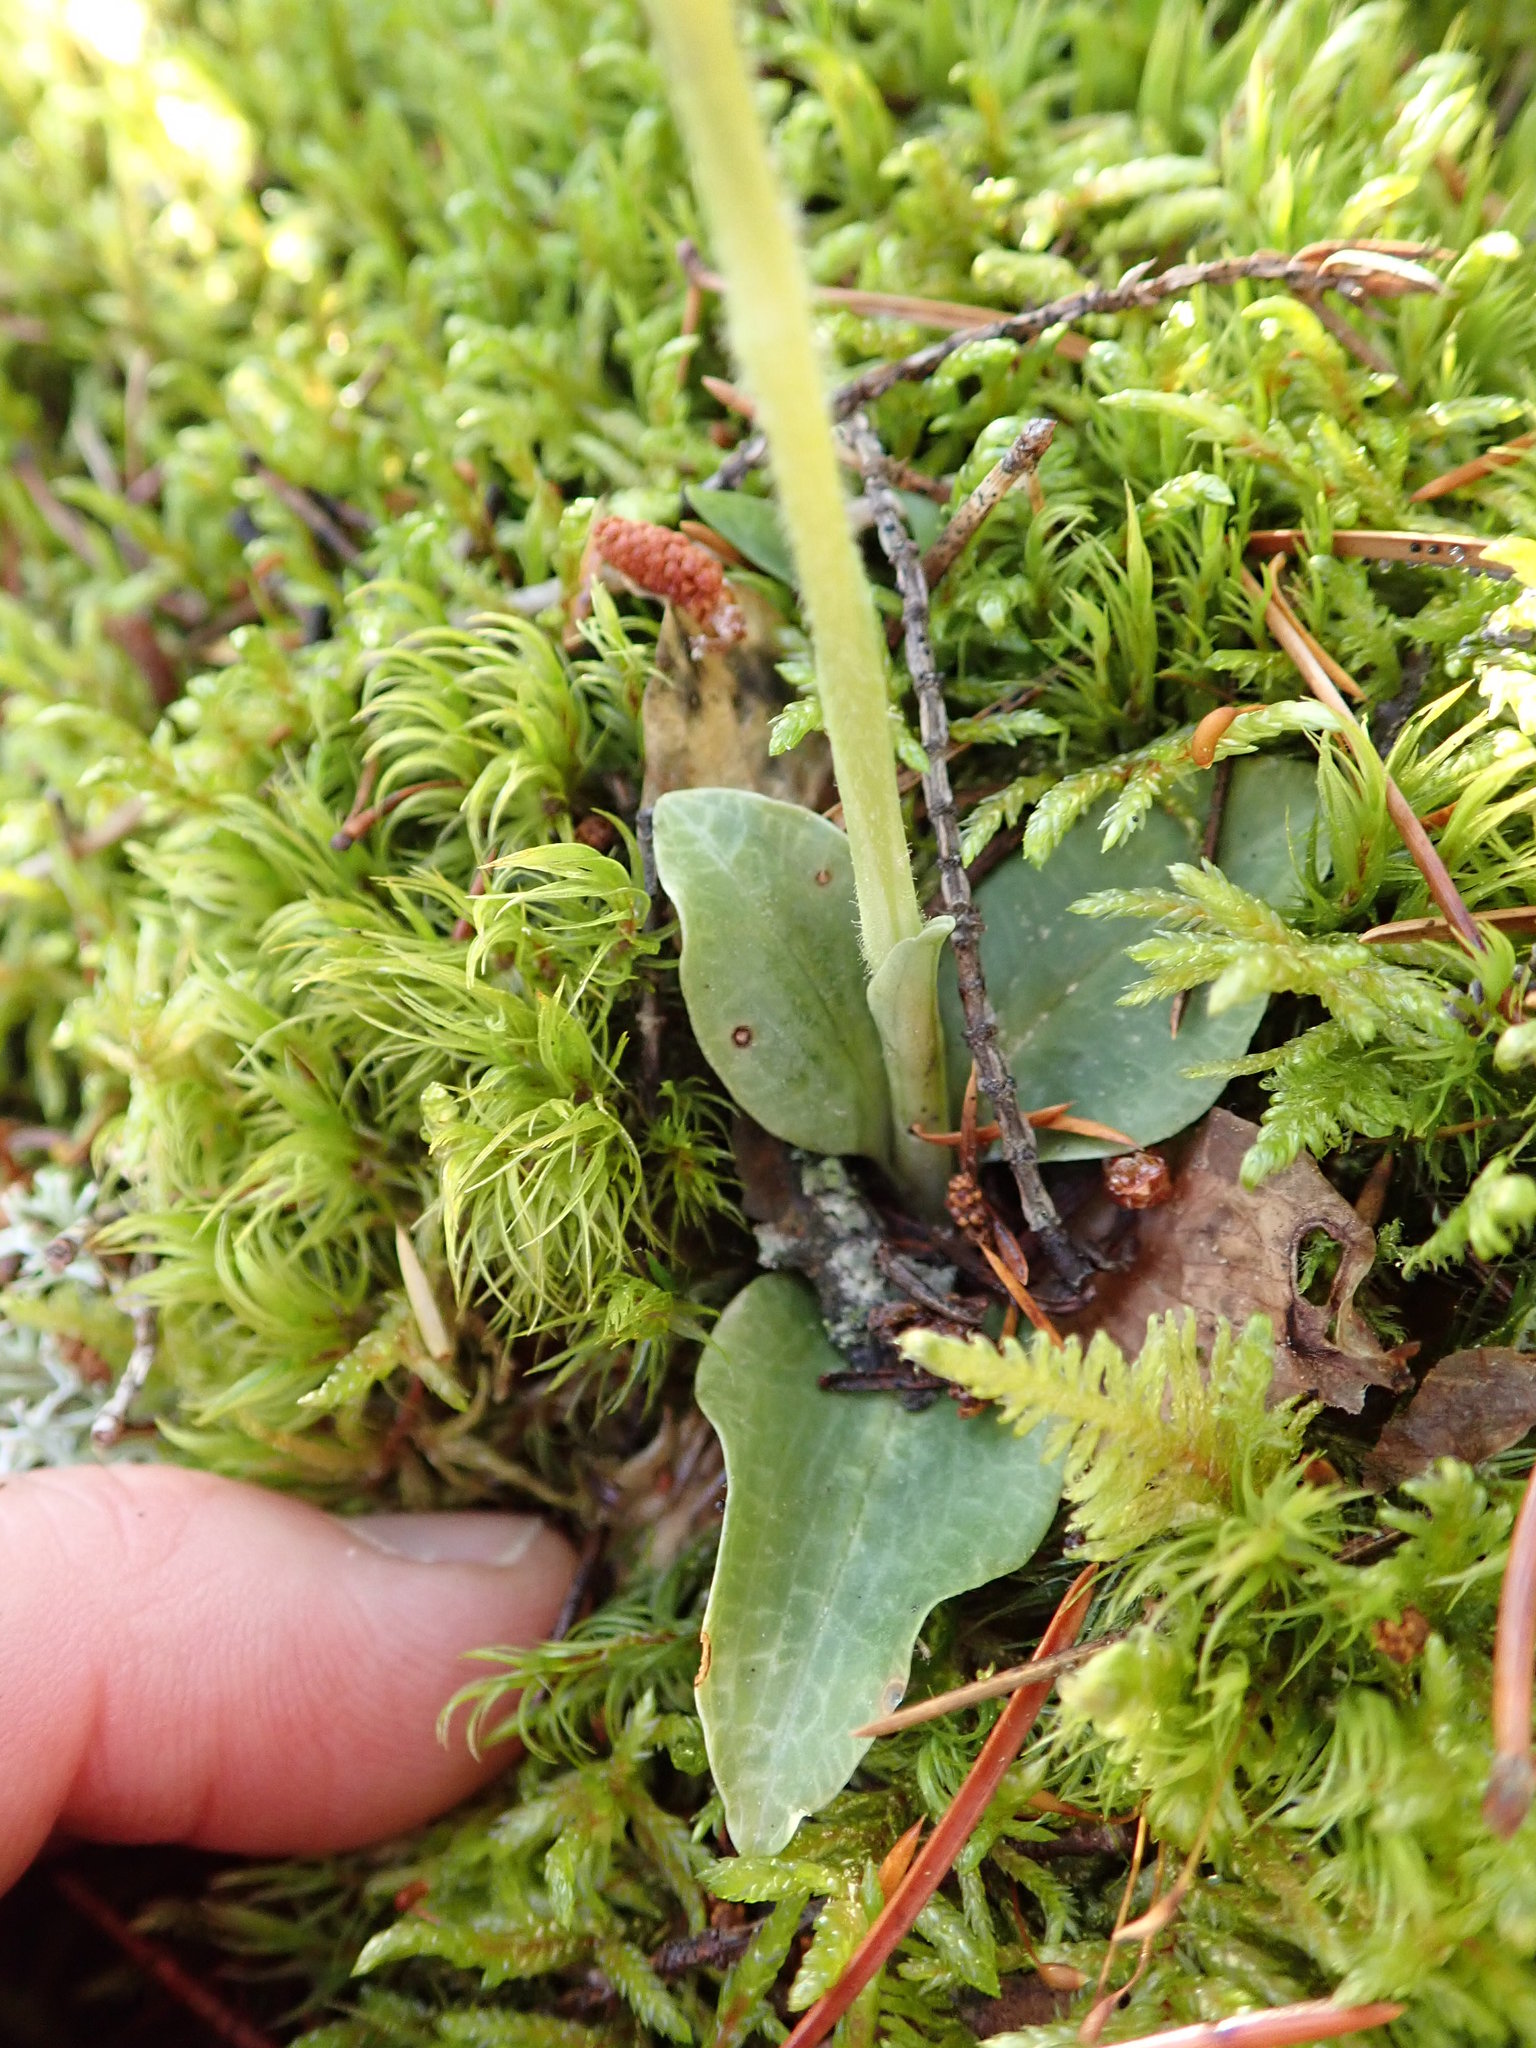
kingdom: Plantae
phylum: Tracheophyta
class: Liliopsida
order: Asparagales
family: Orchidaceae
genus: Goodyera
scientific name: Goodyera repens
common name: Creeping lady's-tresses
